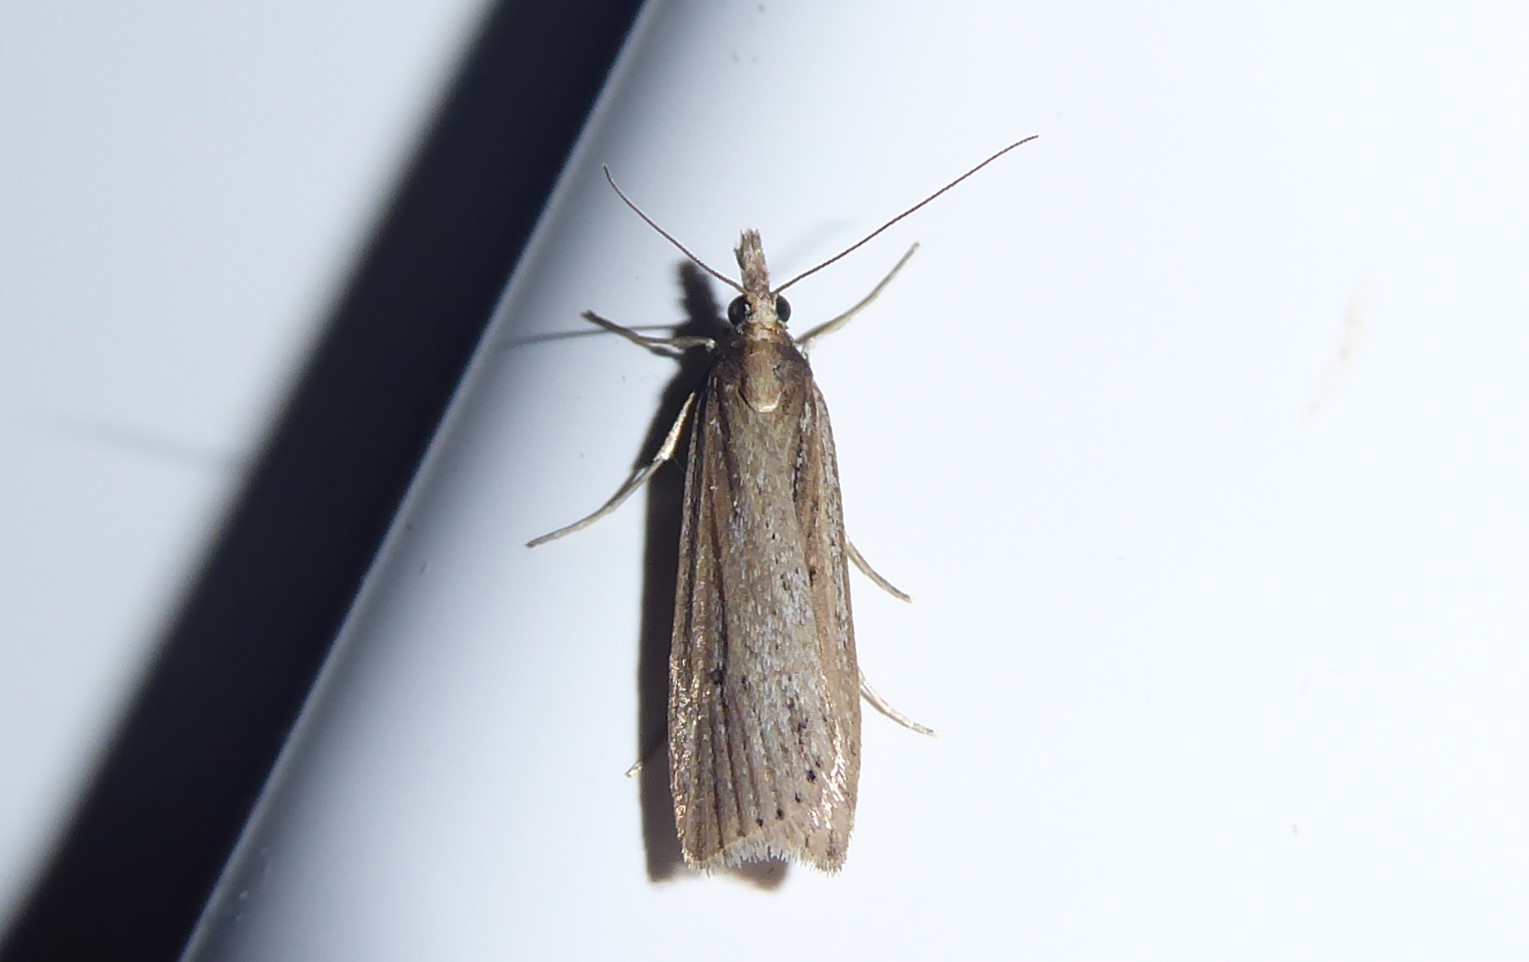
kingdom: Animalia
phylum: Arthropoda
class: Insecta
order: Lepidoptera
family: Crambidae
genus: Eudonia
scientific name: Eudonia sabulosella
